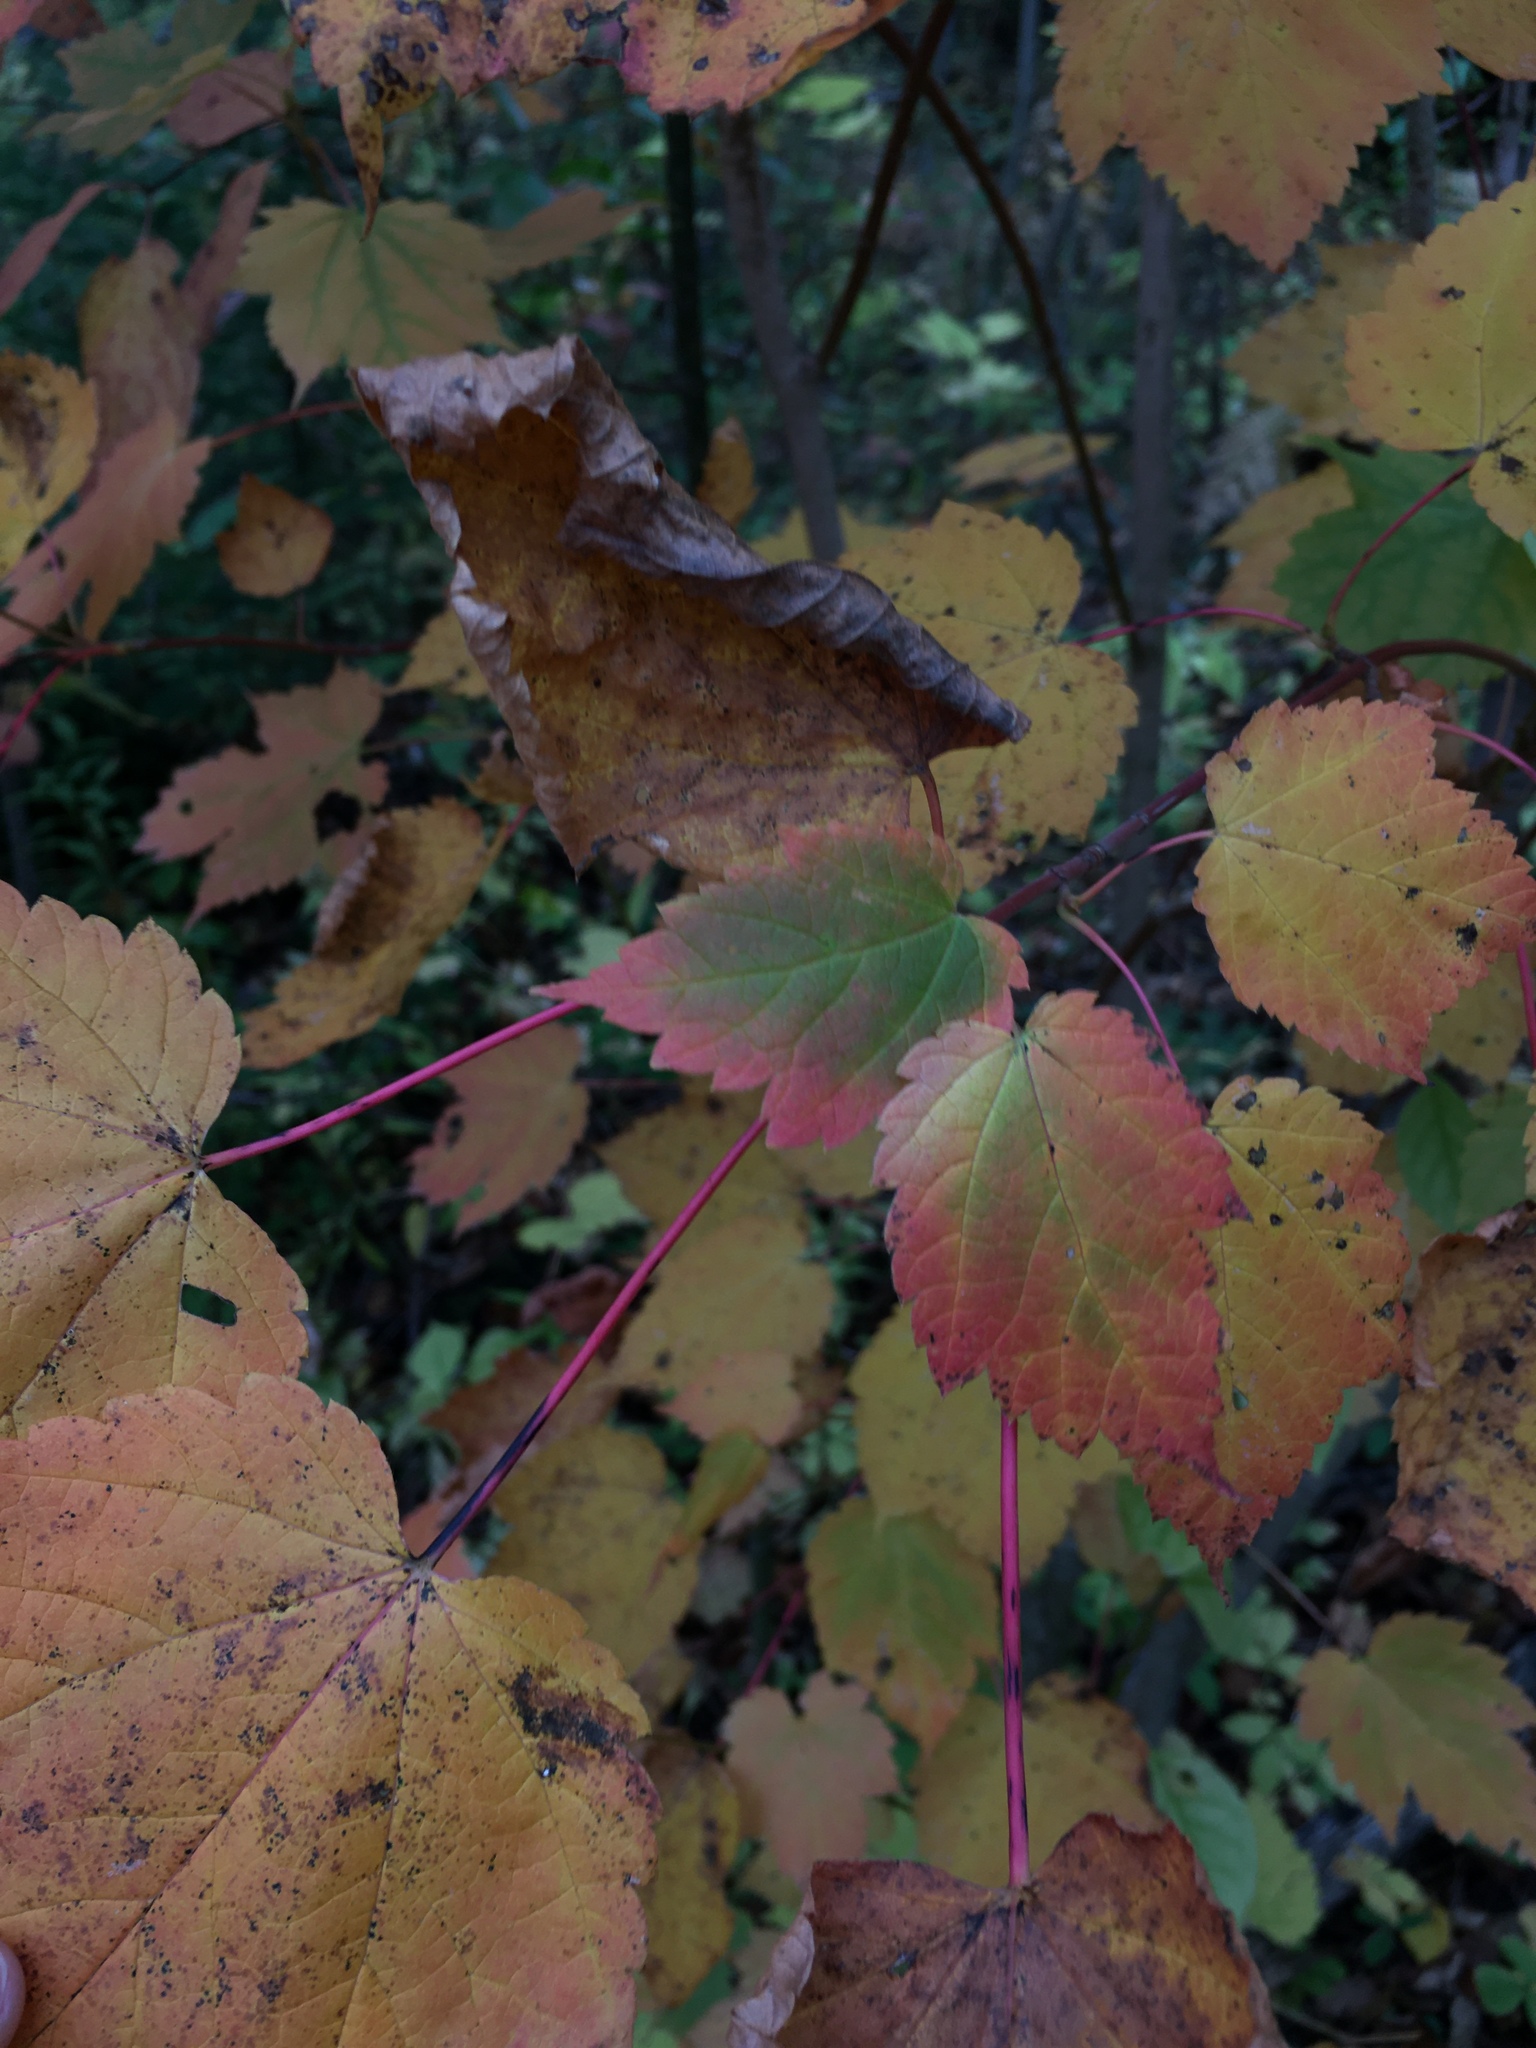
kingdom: Plantae
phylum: Tracheophyta
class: Magnoliopsida
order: Sapindales
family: Sapindaceae
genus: Acer
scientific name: Acer spicatum
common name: Mountain maple
